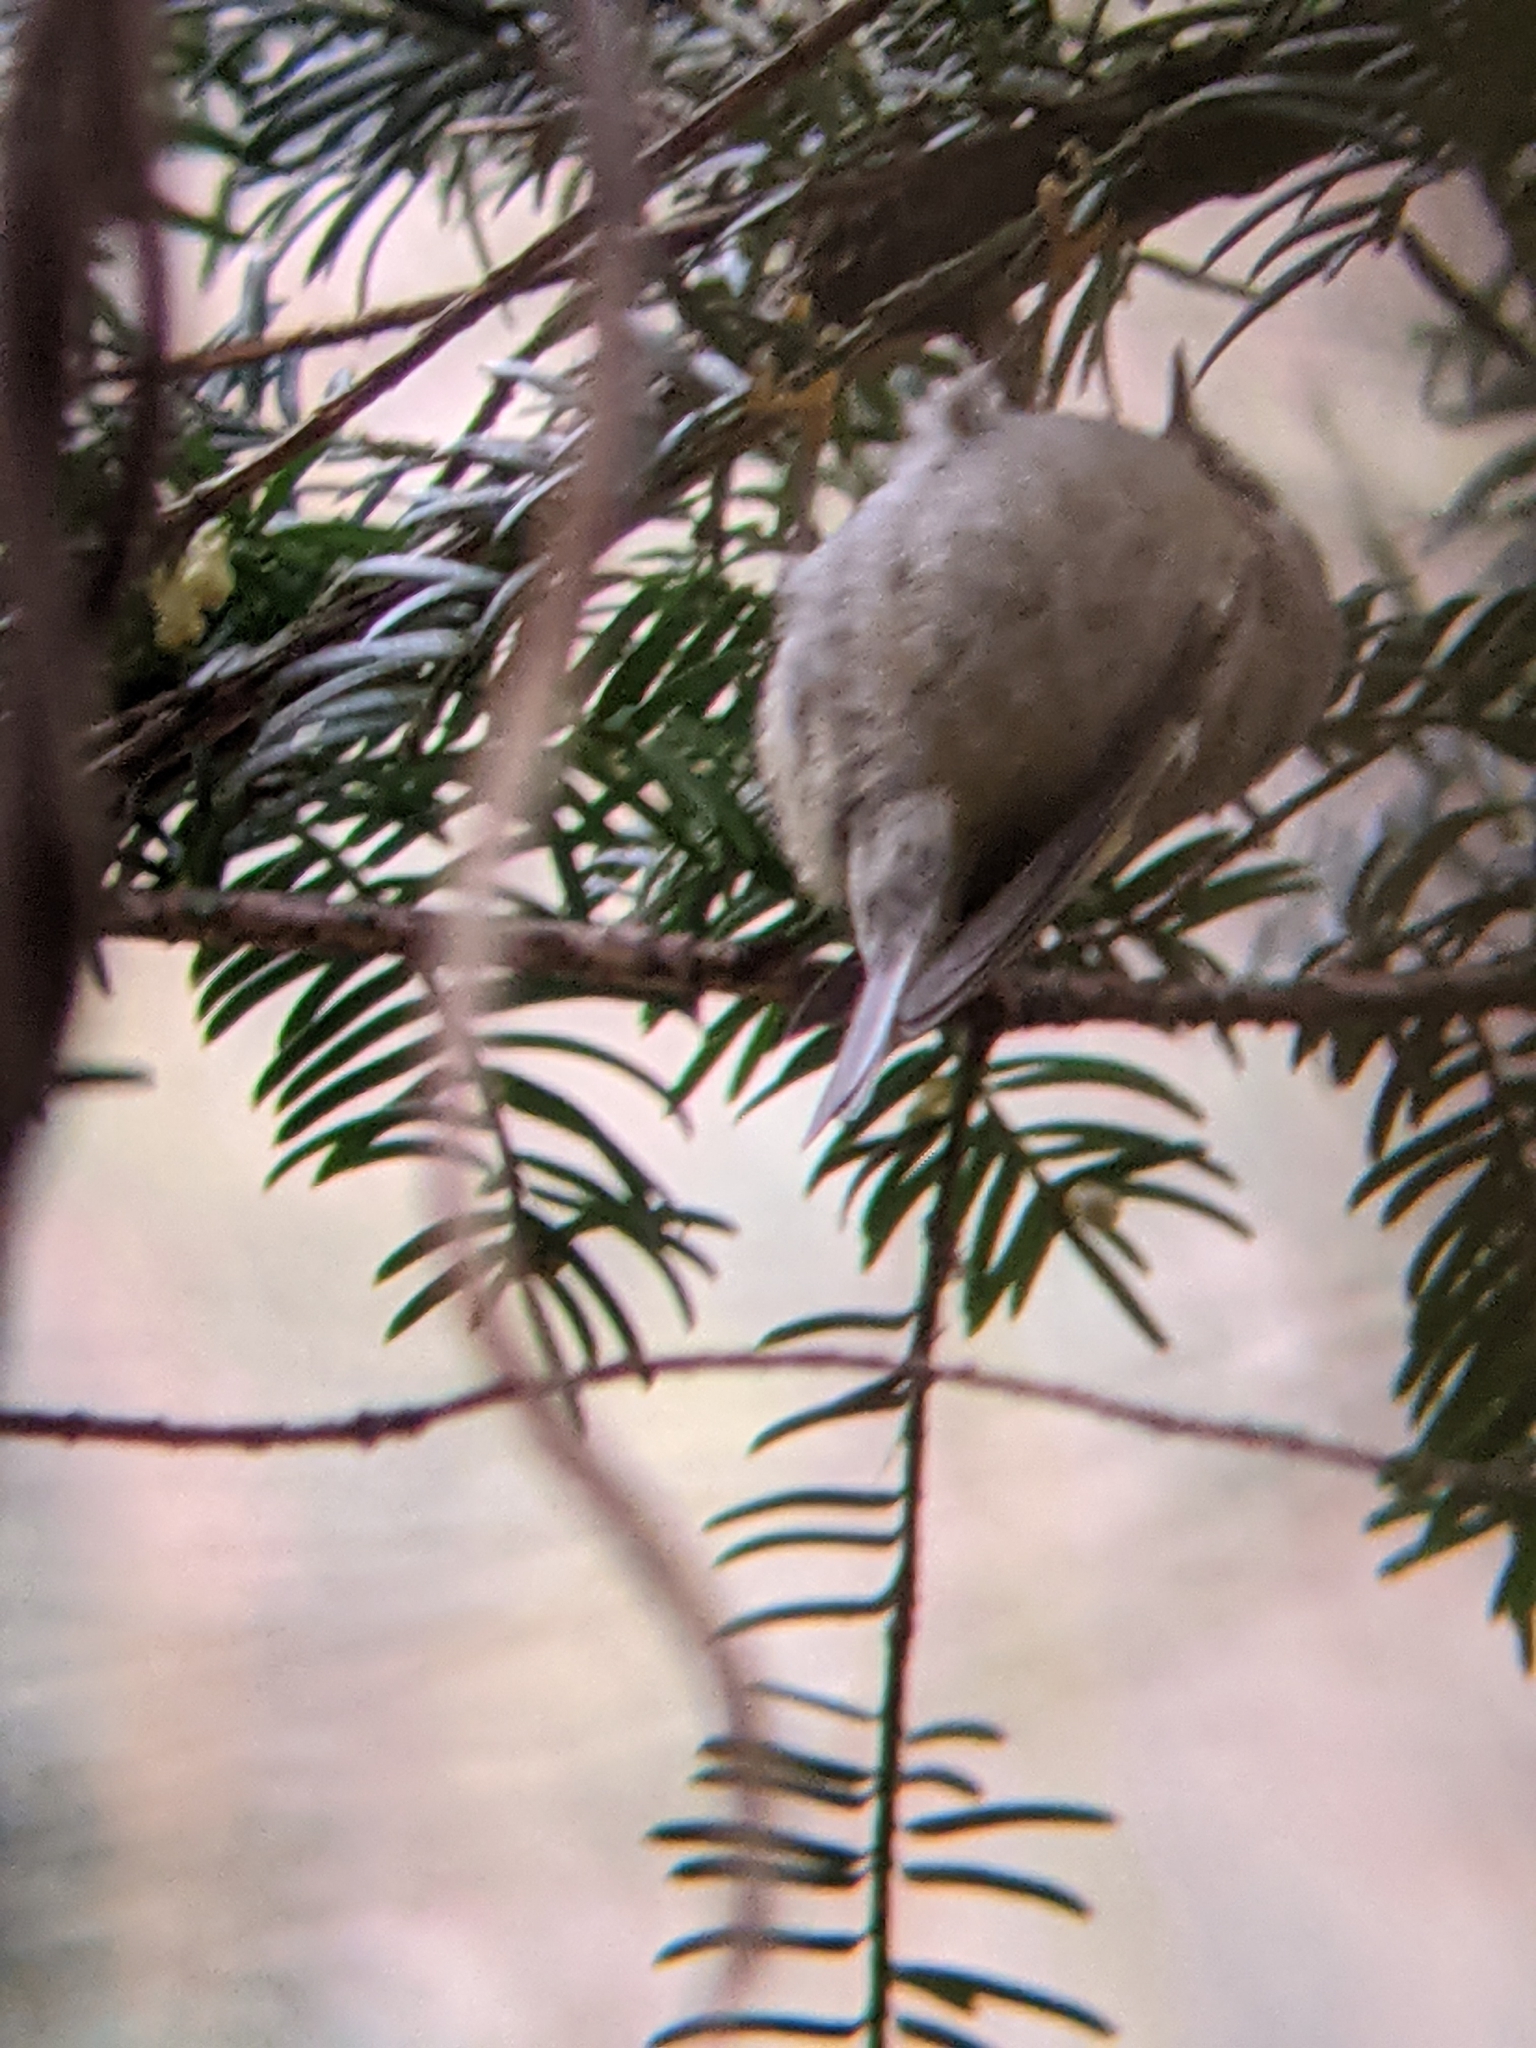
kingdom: Animalia
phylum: Chordata
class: Aves
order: Passeriformes
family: Regulidae
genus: Regulus
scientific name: Regulus regulus
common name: Goldcrest
